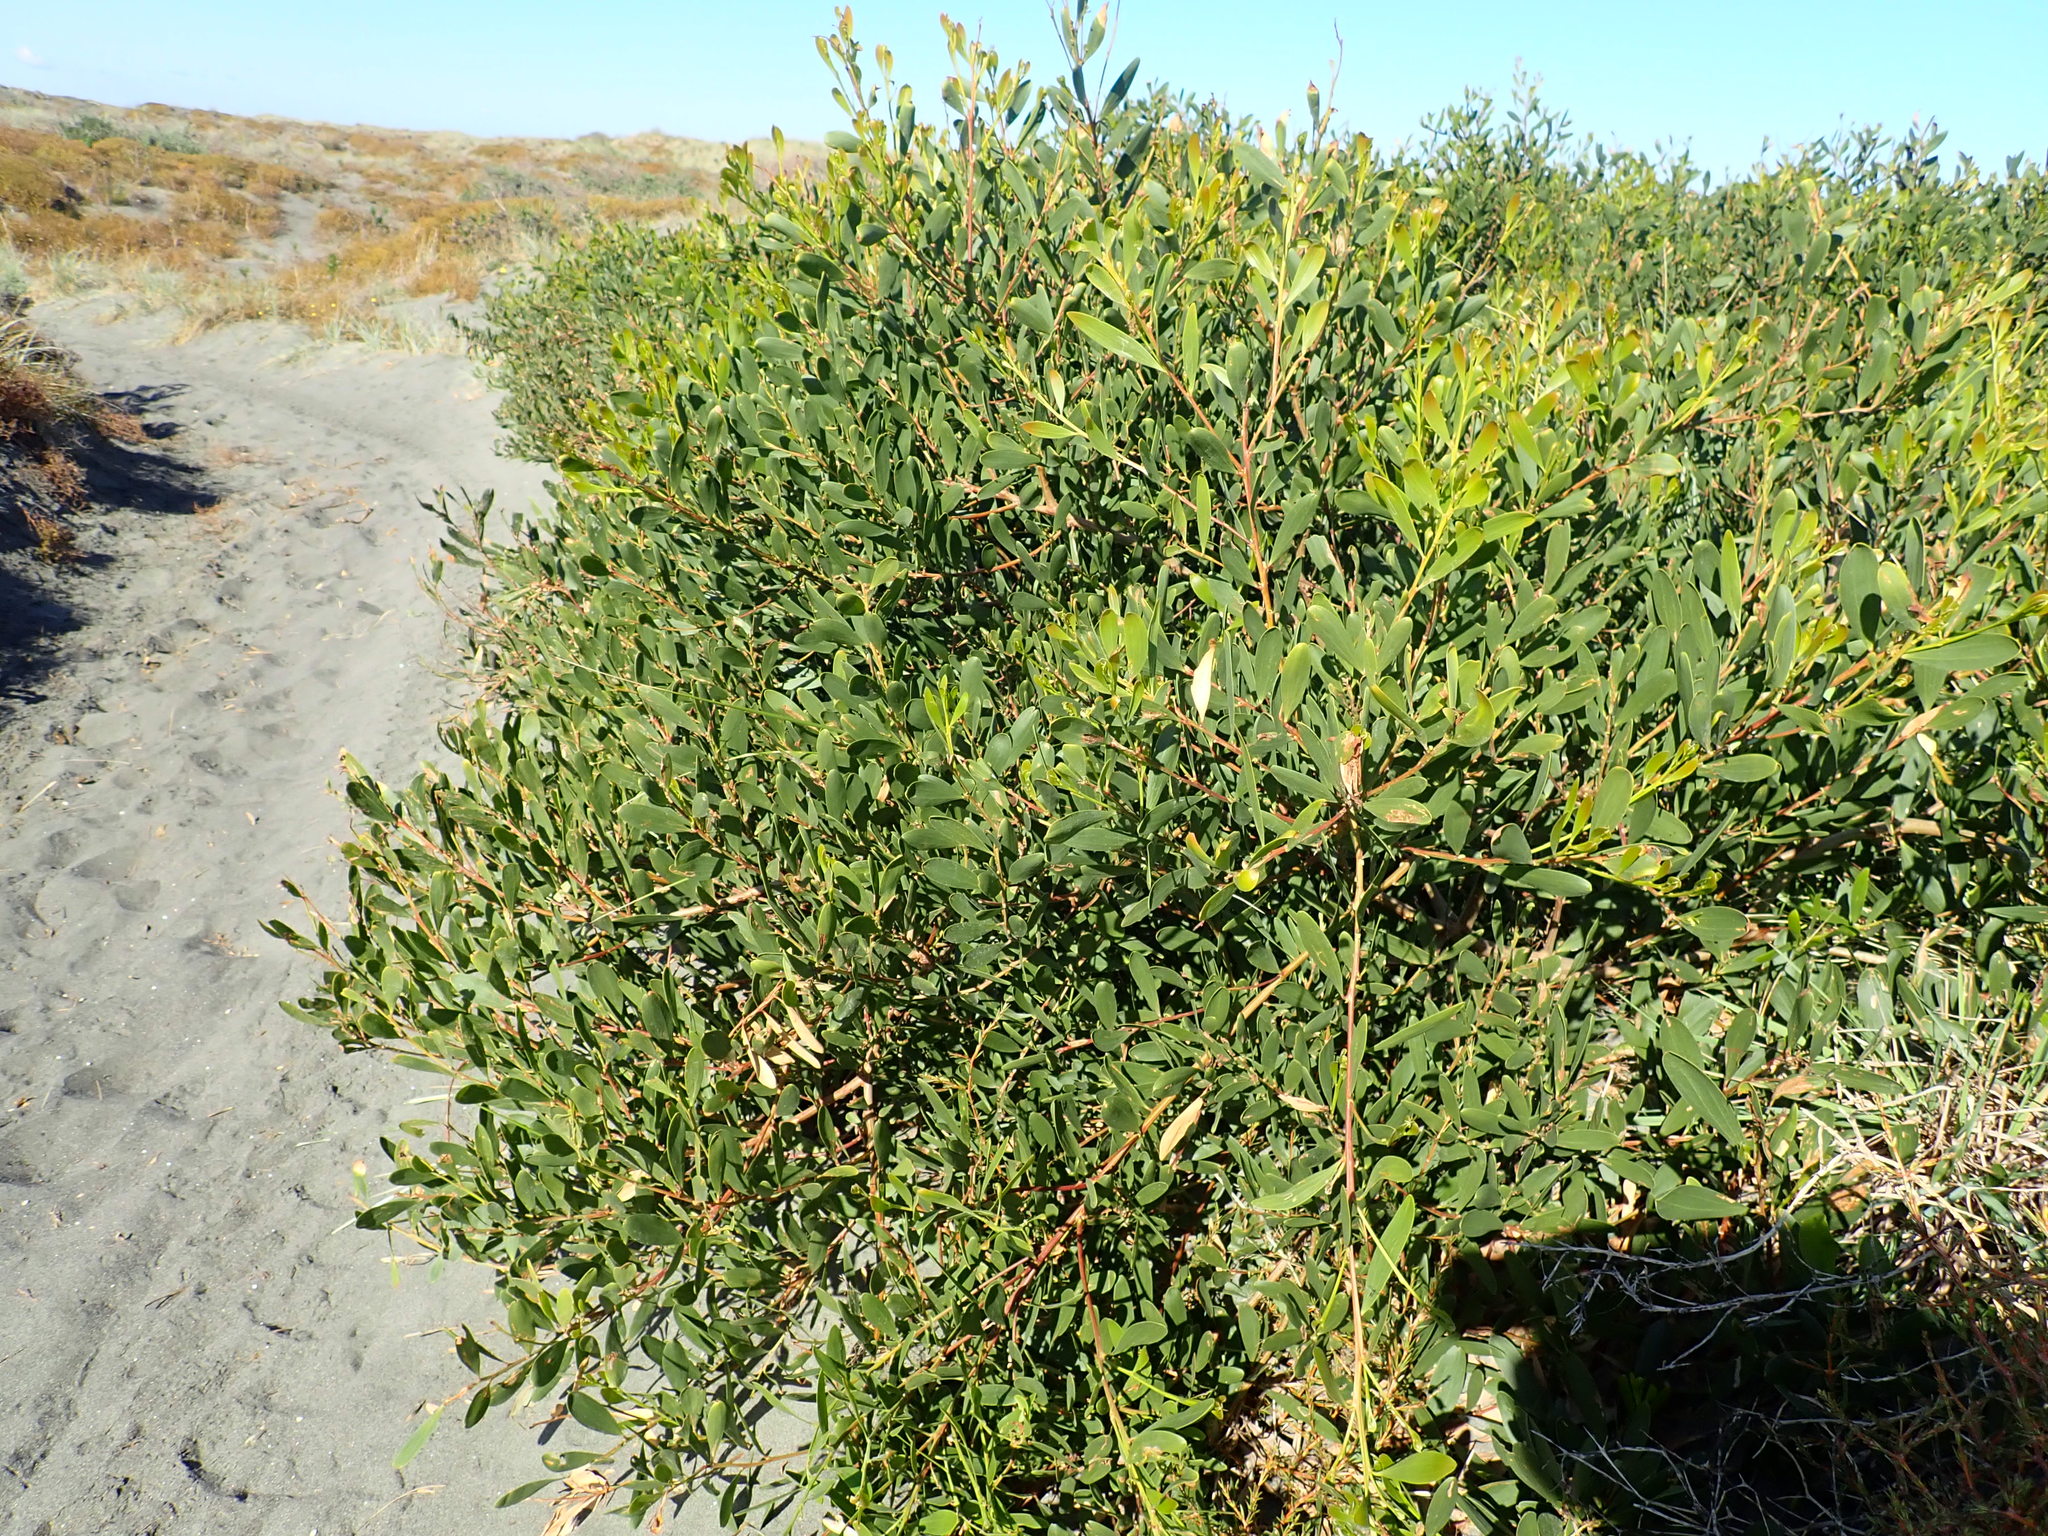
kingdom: Plantae
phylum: Tracheophyta
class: Magnoliopsida
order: Fabales
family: Fabaceae
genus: Acacia
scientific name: Acacia longifolia
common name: Sydney golden wattle
